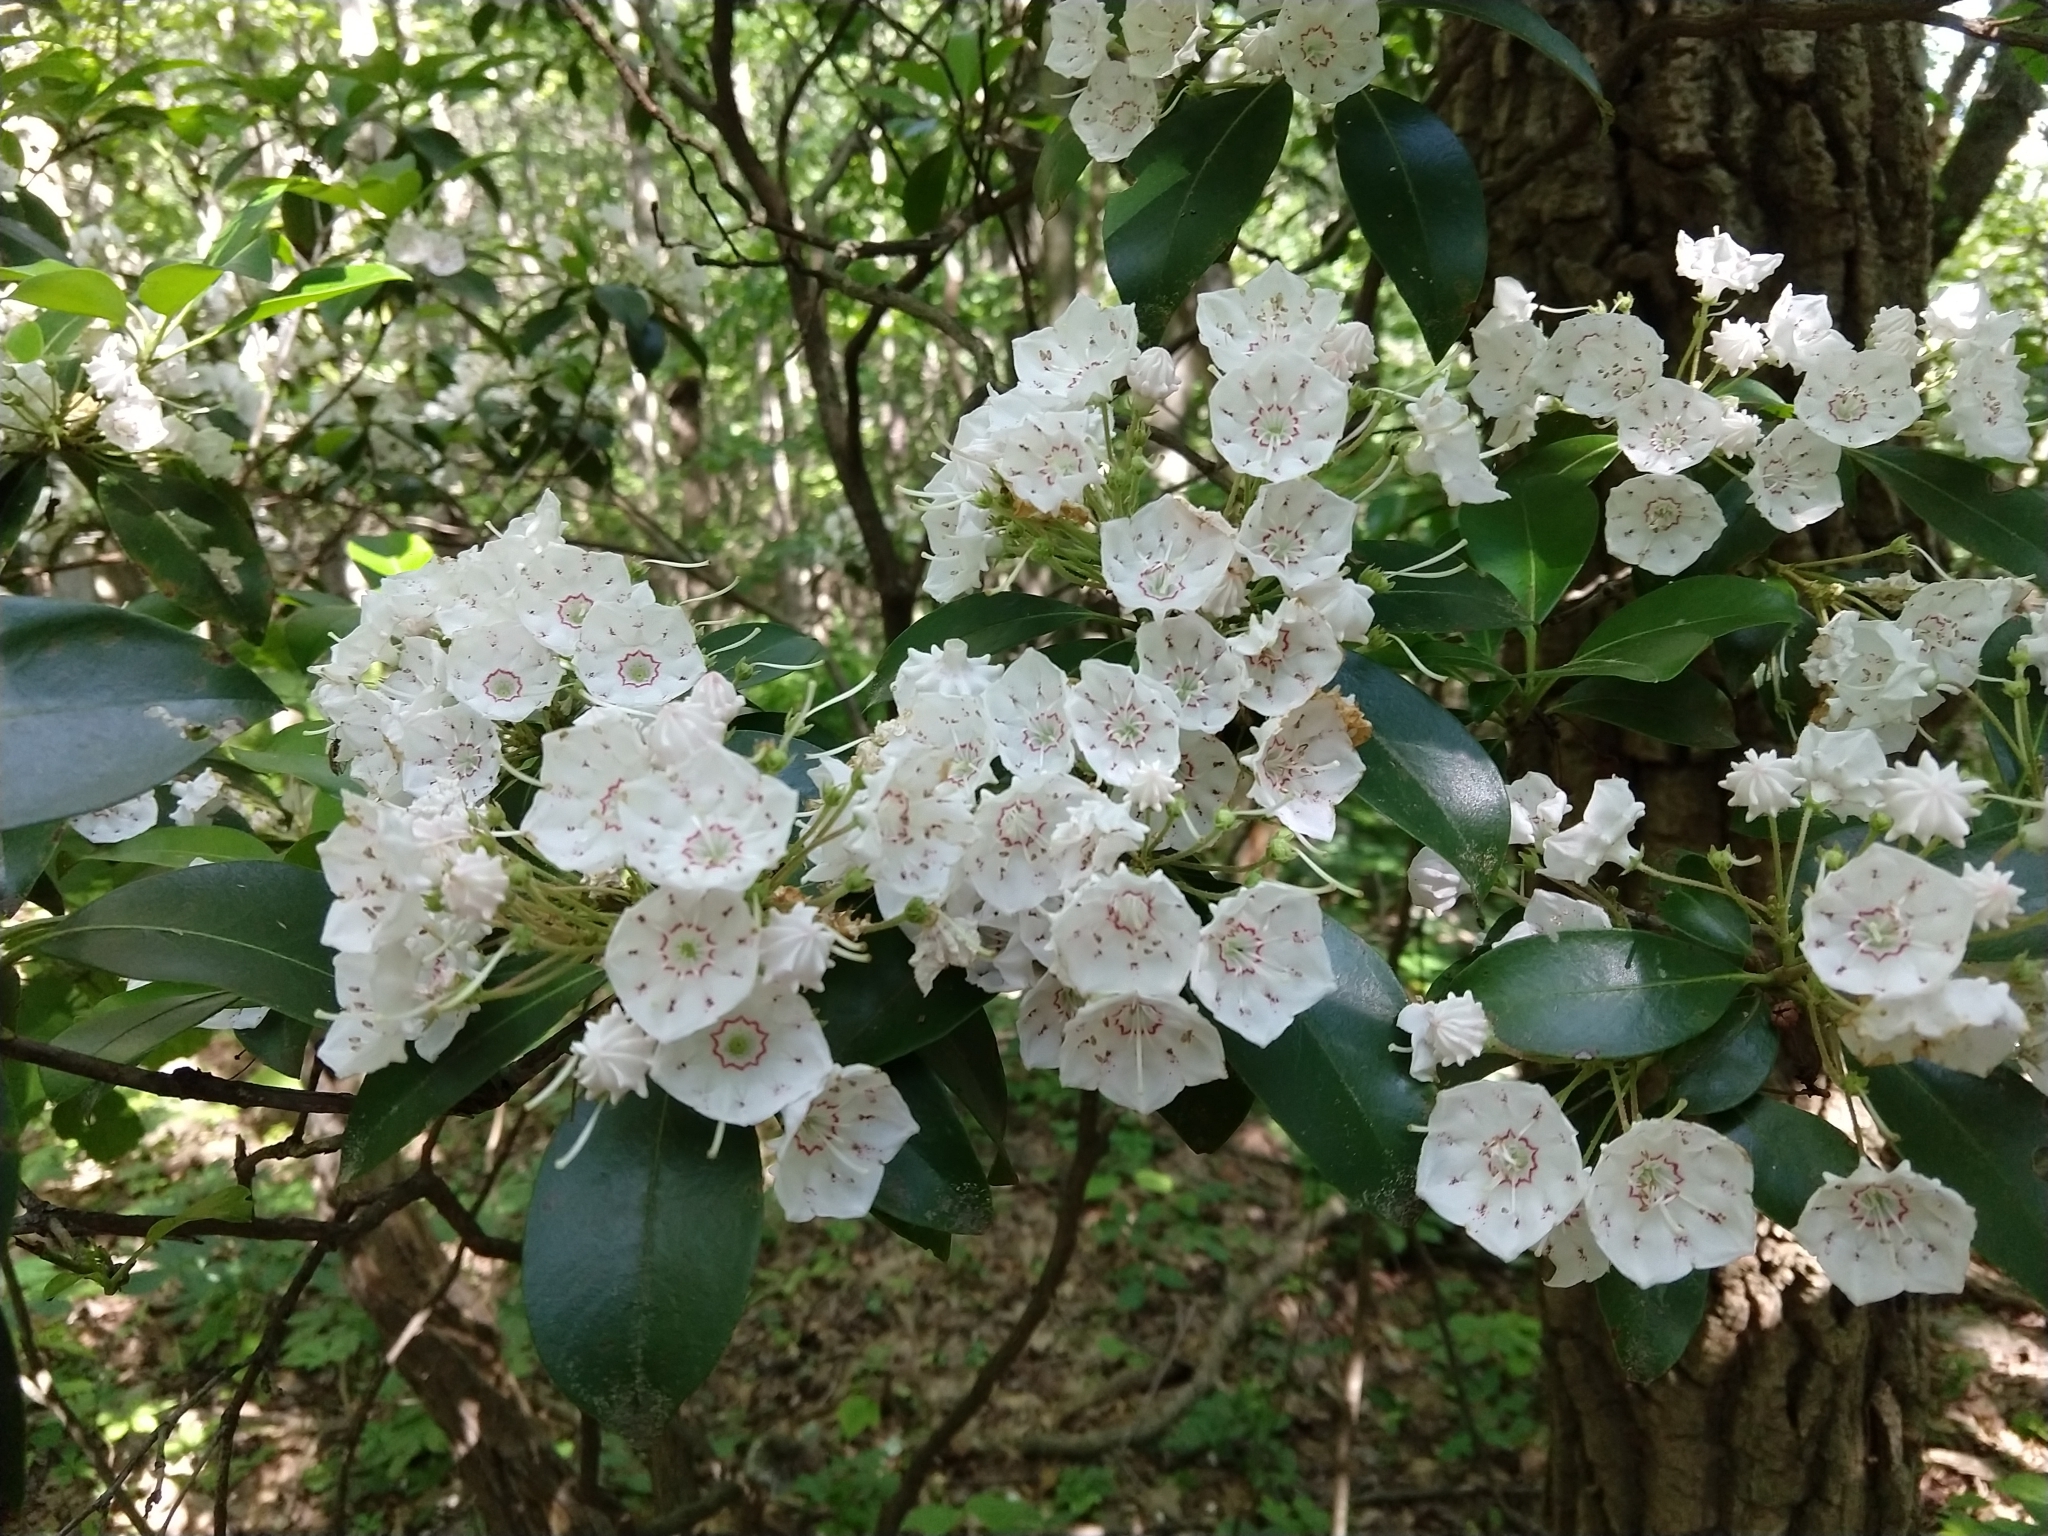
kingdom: Plantae
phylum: Tracheophyta
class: Magnoliopsida
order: Ericales
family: Ericaceae
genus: Kalmia
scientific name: Kalmia latifolia
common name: Mountain-laurel
